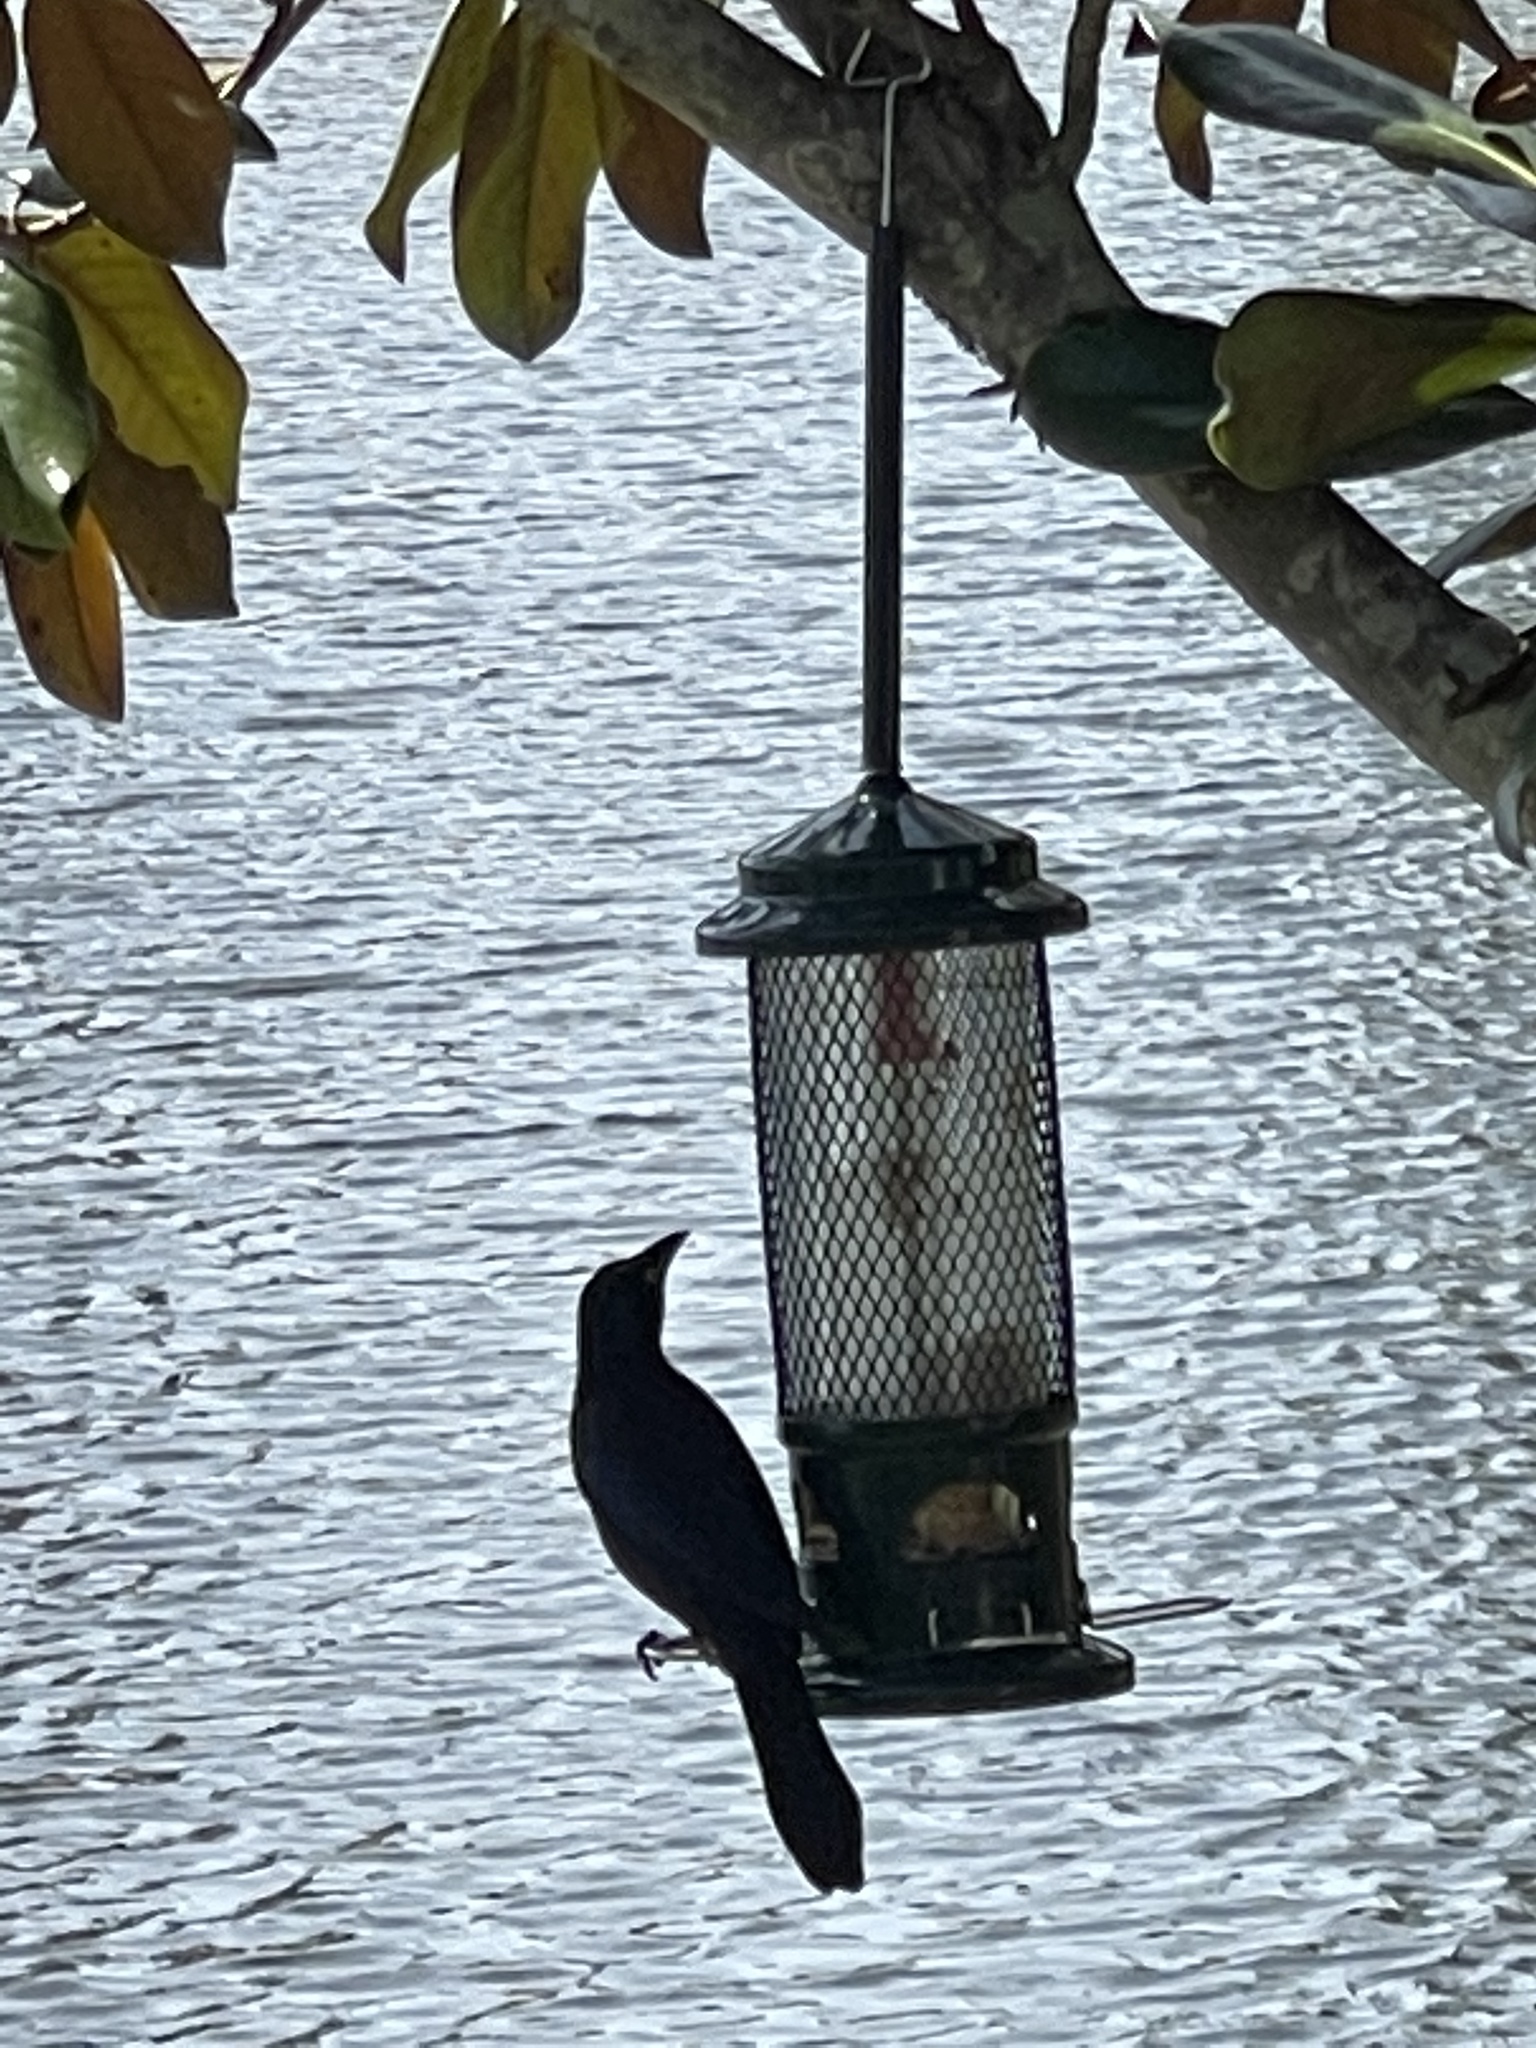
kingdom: Animalia
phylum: Chordata
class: Aves
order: Passeriformes
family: Icteridae
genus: Quiscalus
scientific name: Quiscalus quiscula
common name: Common grackle
